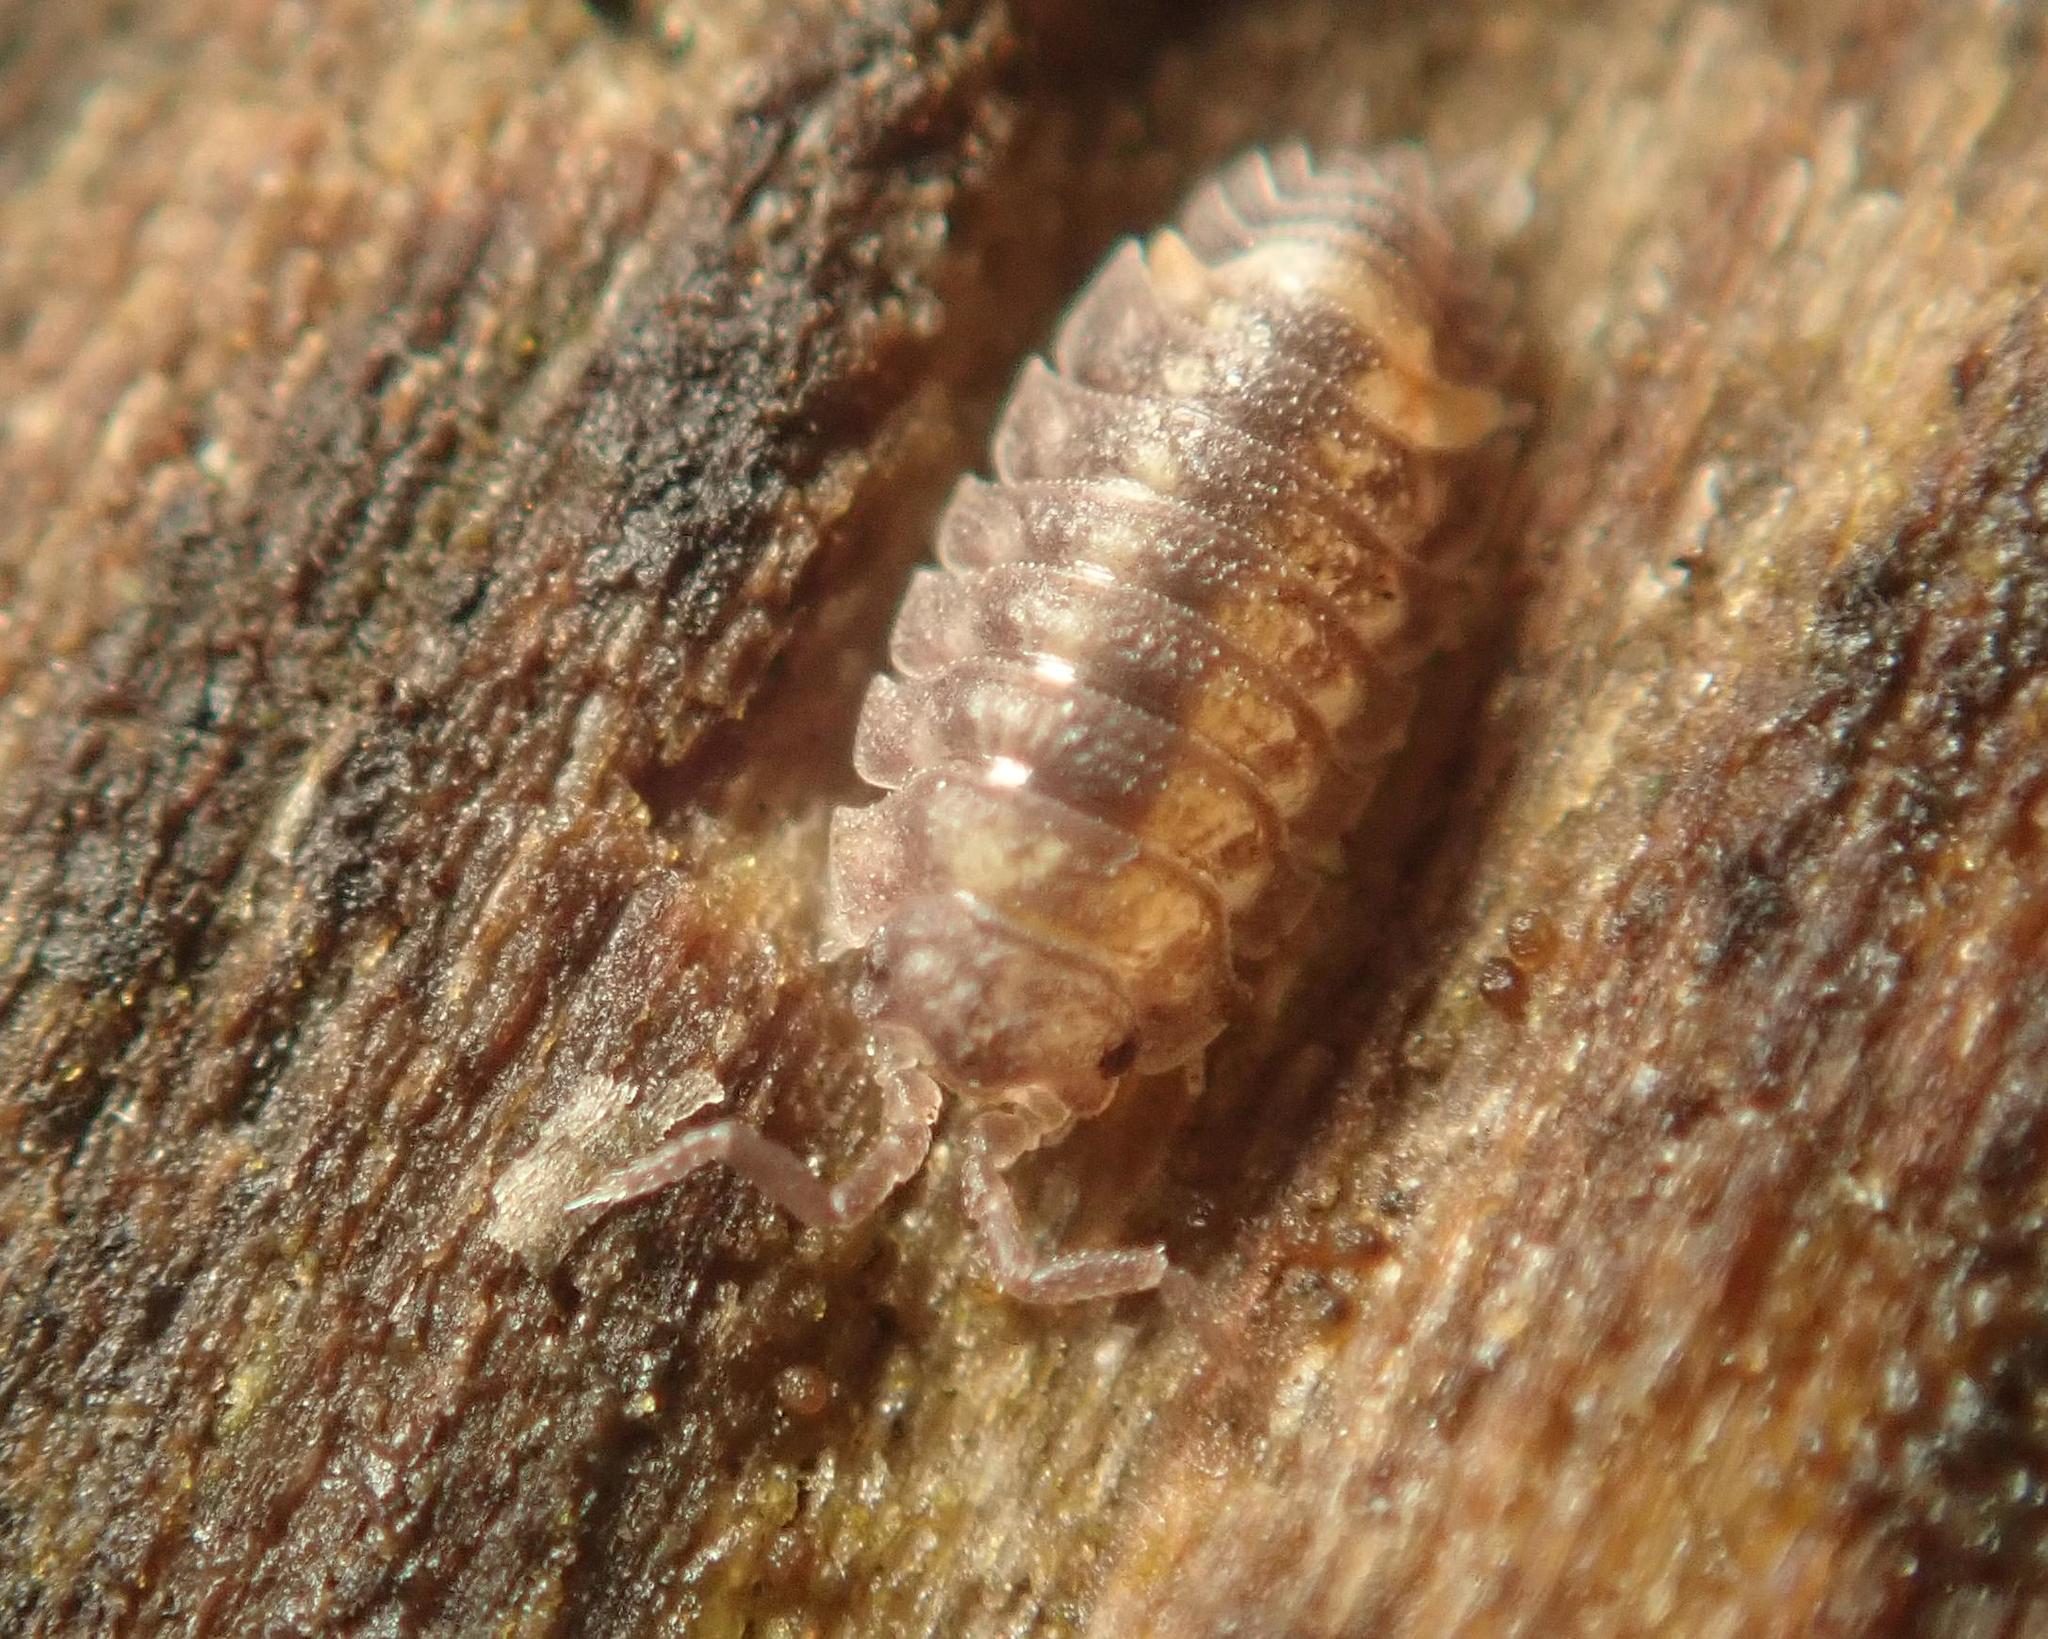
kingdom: Animalia
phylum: Arthropoda
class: Malacostraca
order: Isopoda
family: Oniscidae
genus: Oniscus
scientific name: Oniscus asellus
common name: Common shiny woodlouse
